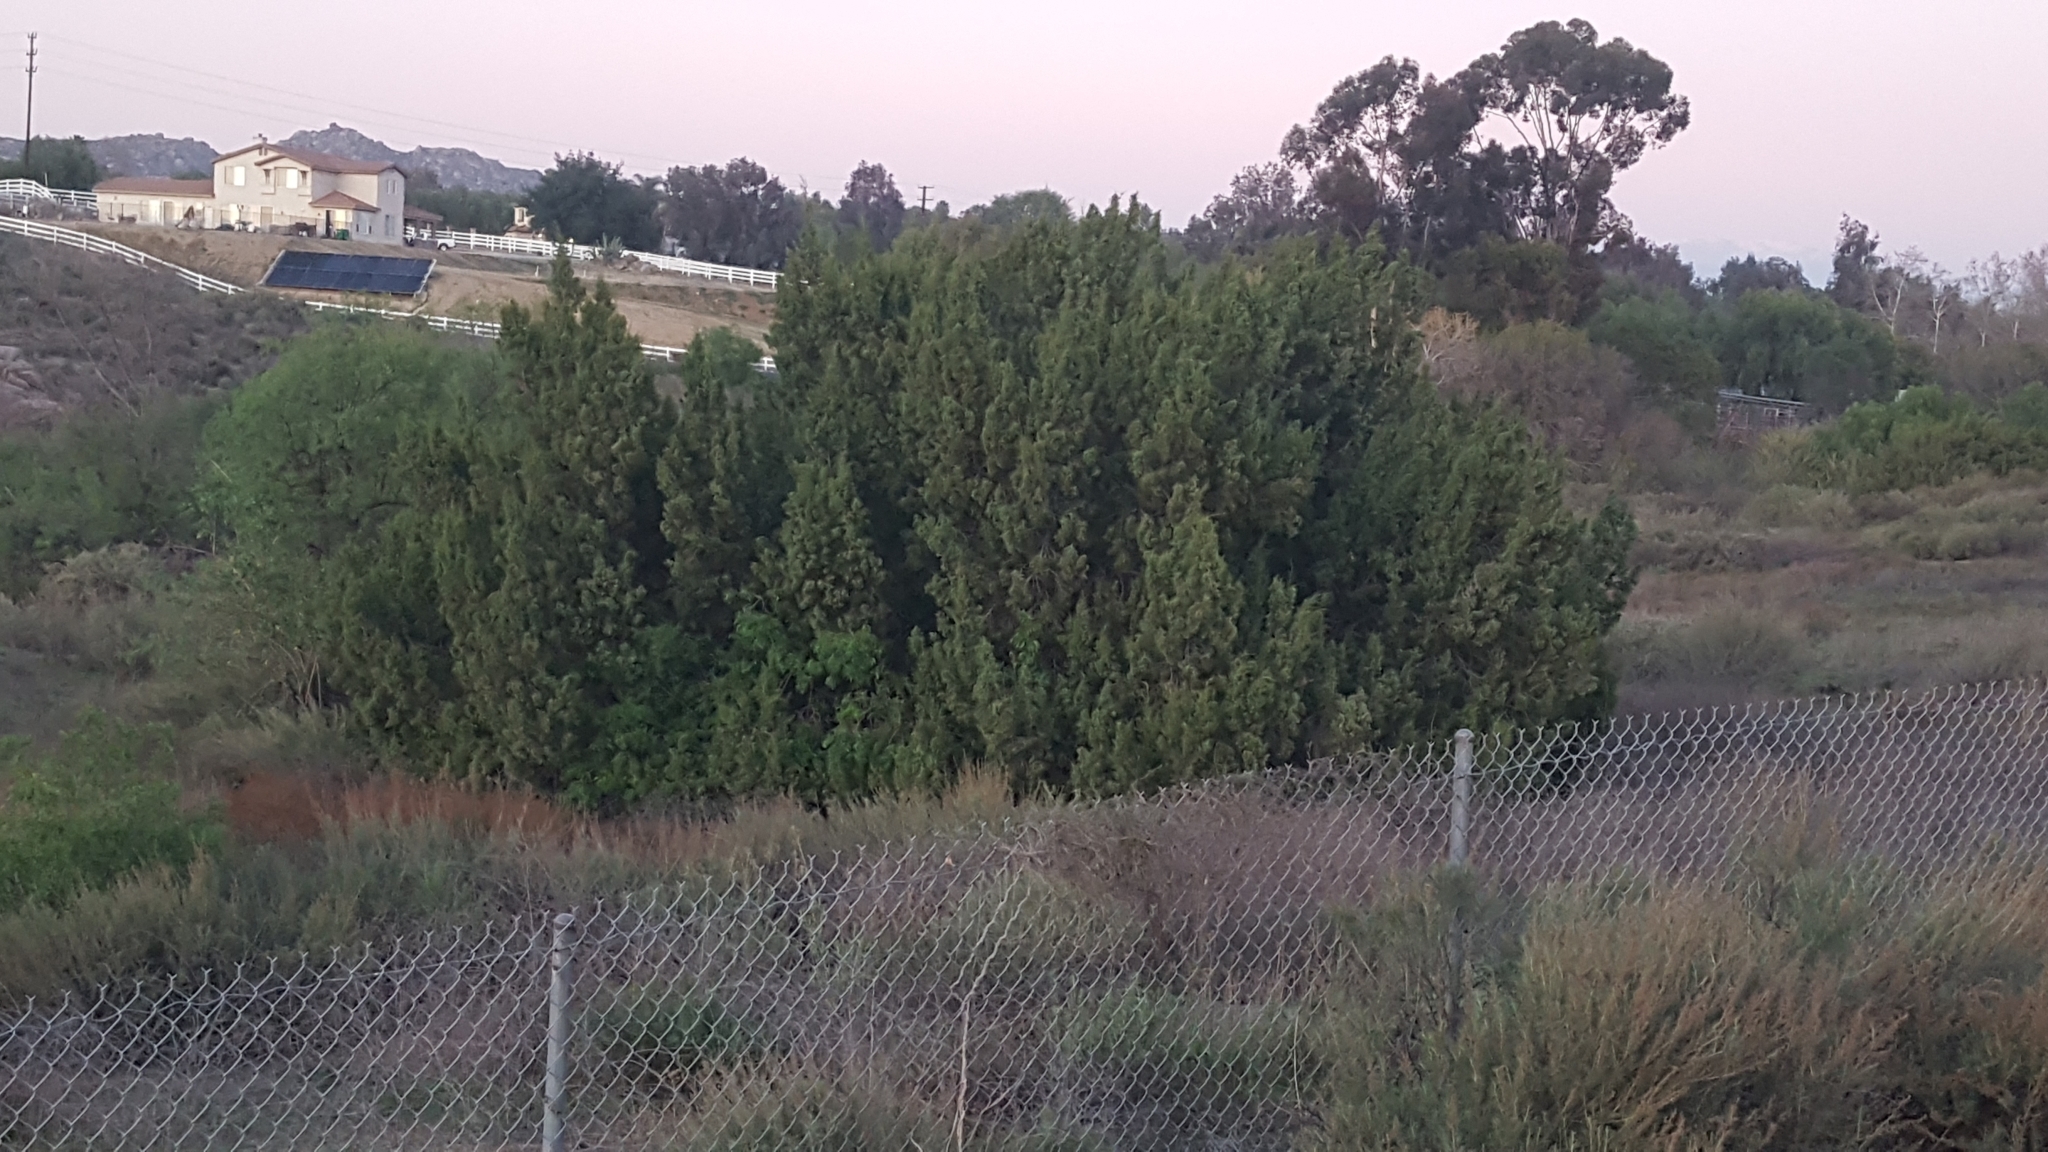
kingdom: Plantae
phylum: Tracheophyta
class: Pinopsida
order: Pinales
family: Cupressaceae
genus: Juniperus
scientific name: Juniperus californica
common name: California juniper
